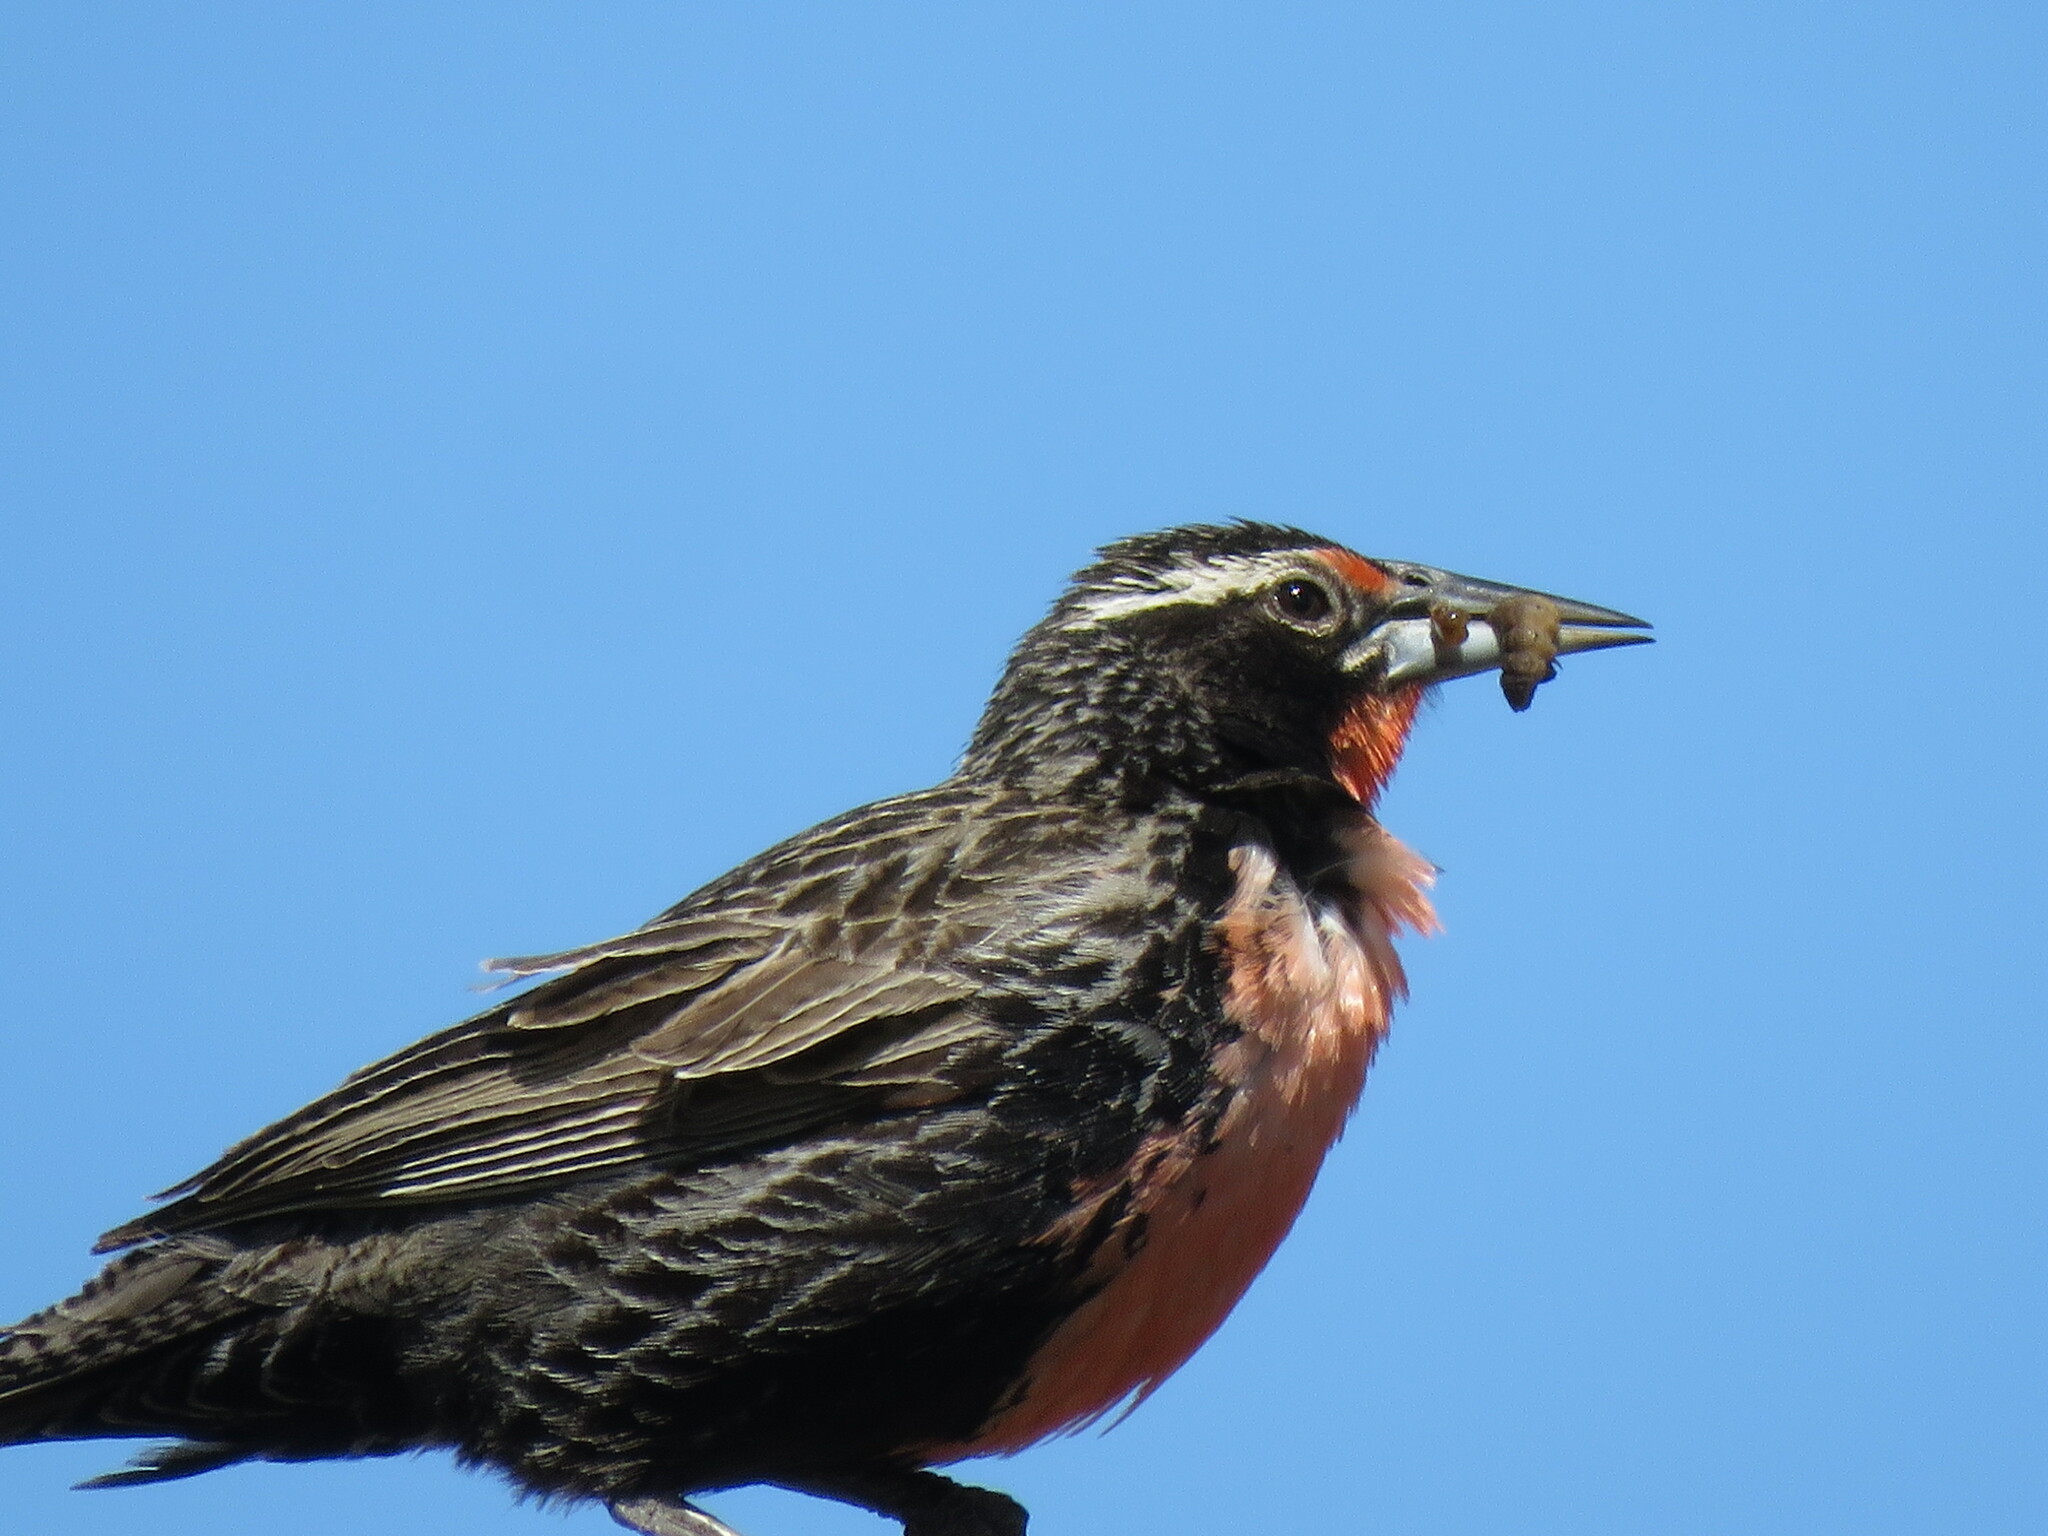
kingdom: Animalia
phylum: Chordata
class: Aves
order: Passeriformes
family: Icteridae
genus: Sturnella
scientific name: Sturnella loyca
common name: Long-tailed meadowlark
